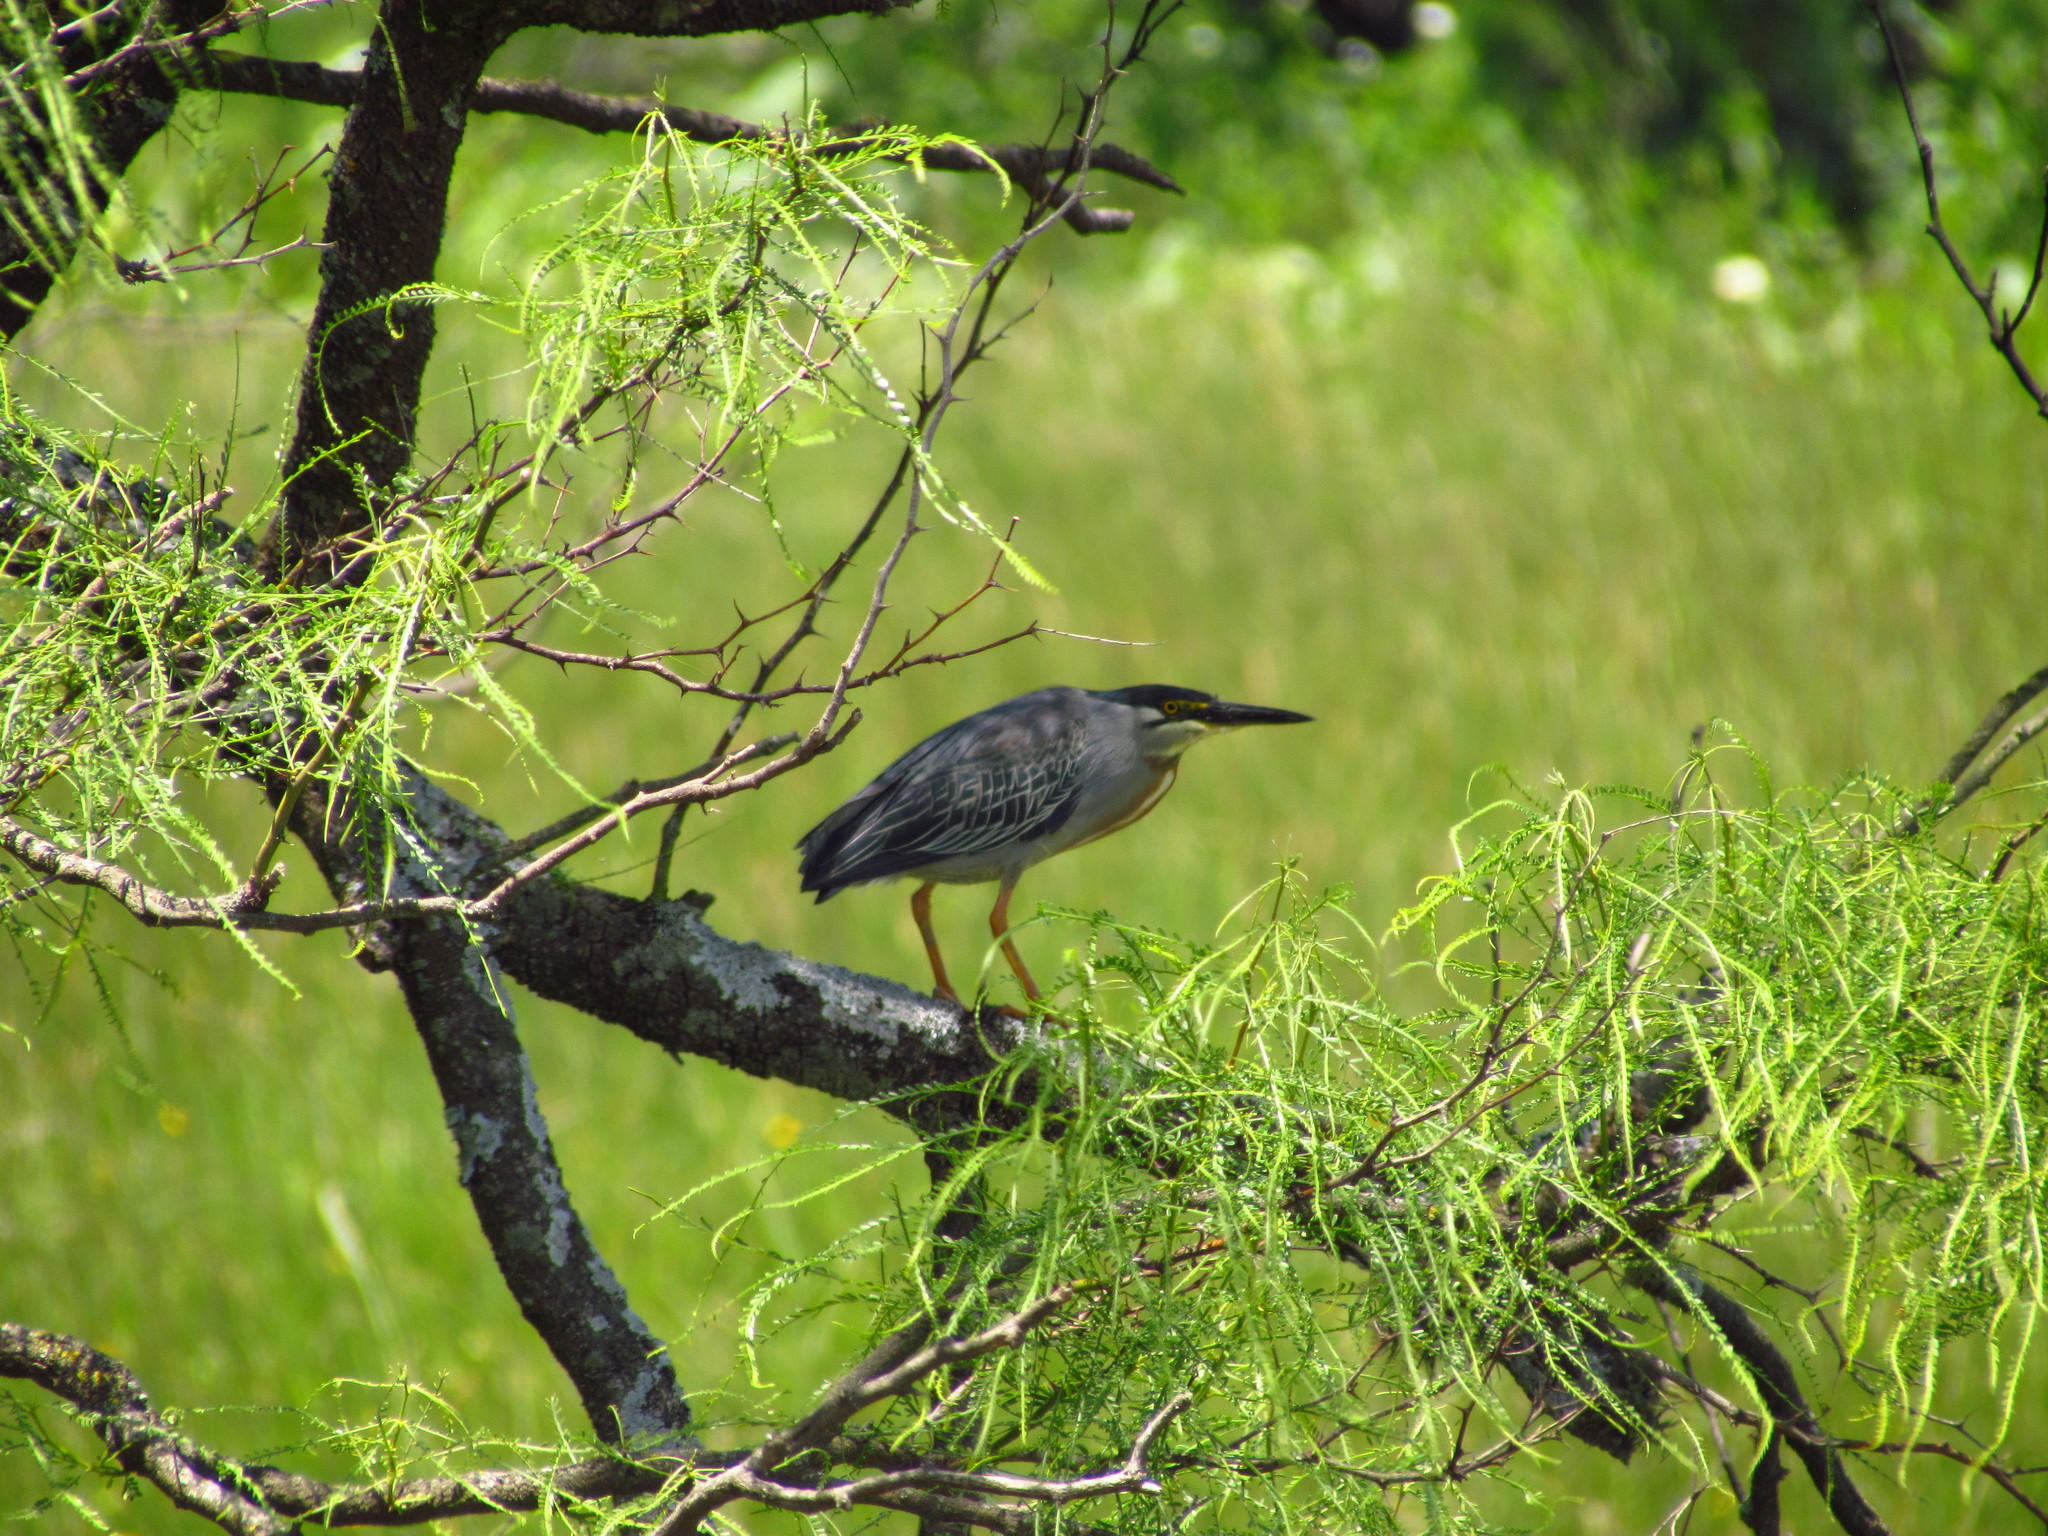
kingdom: Animalia
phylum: Chordata
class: Aves
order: Pelecaniformes
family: Ardeidae
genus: Butorides
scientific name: Butorides striata
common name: Striated heron
